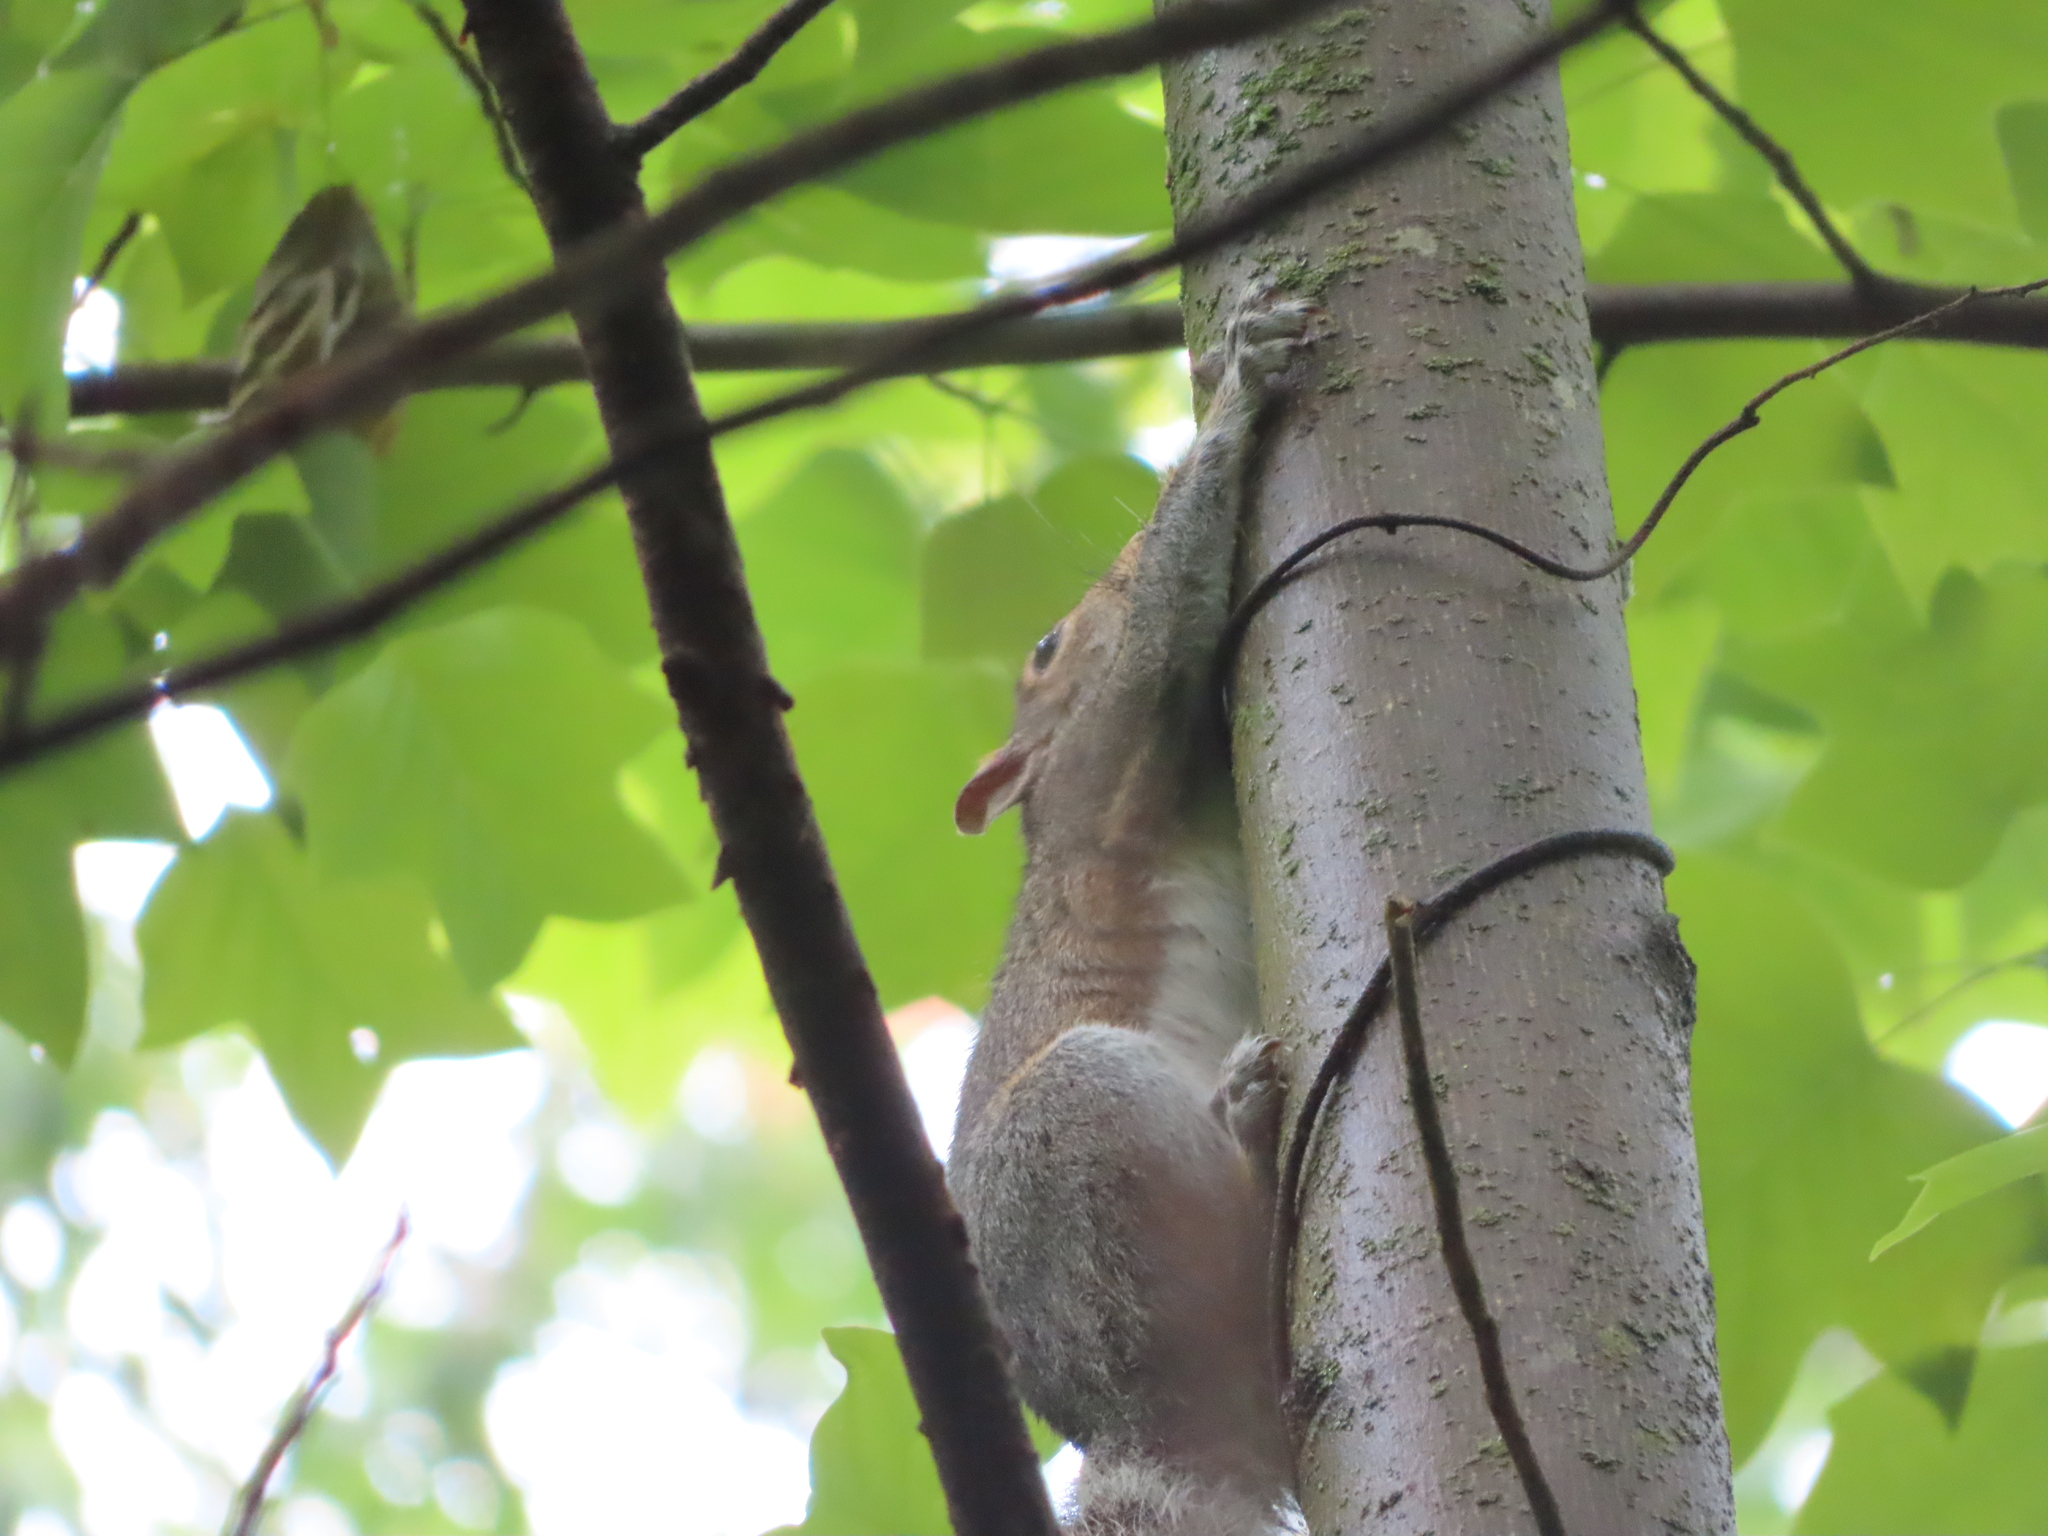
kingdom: Animalia
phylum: Chordata
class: Mammalia
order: Rodentia
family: Sciuridae
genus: Sciurus
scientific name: Sciurus carolinensis
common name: Eastern gray squirrel
